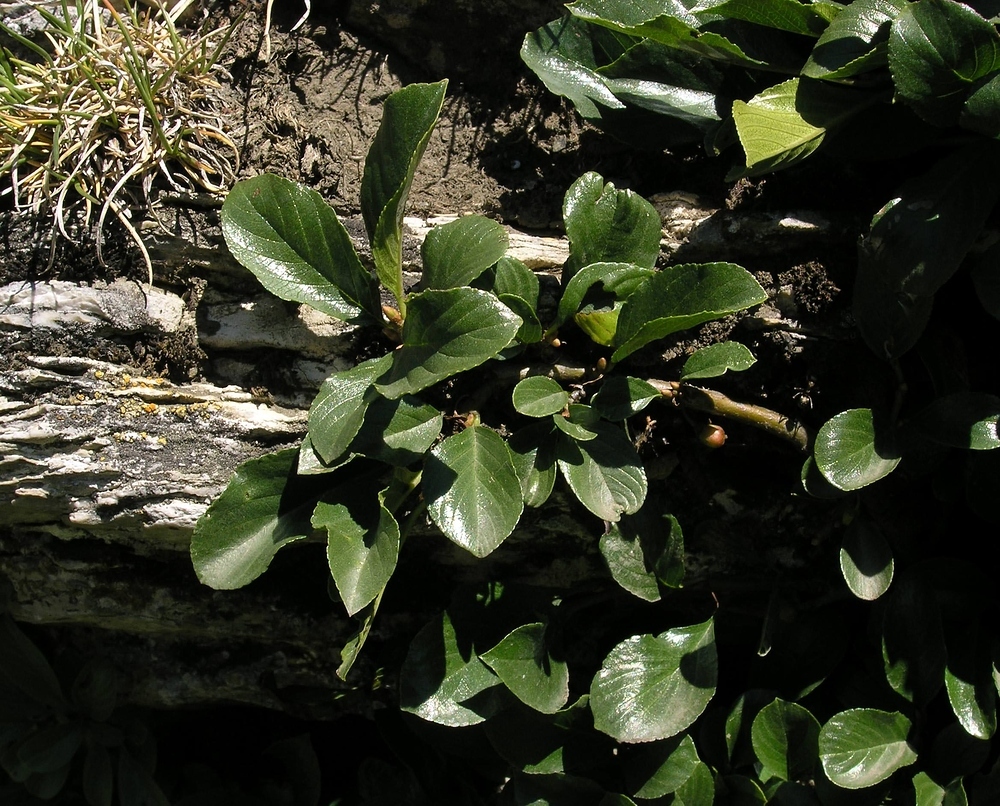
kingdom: Plantae
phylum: Tracheophyta
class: Magnoliopsida
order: Rosales
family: Rhamnaceae
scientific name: Rhamnaceae
